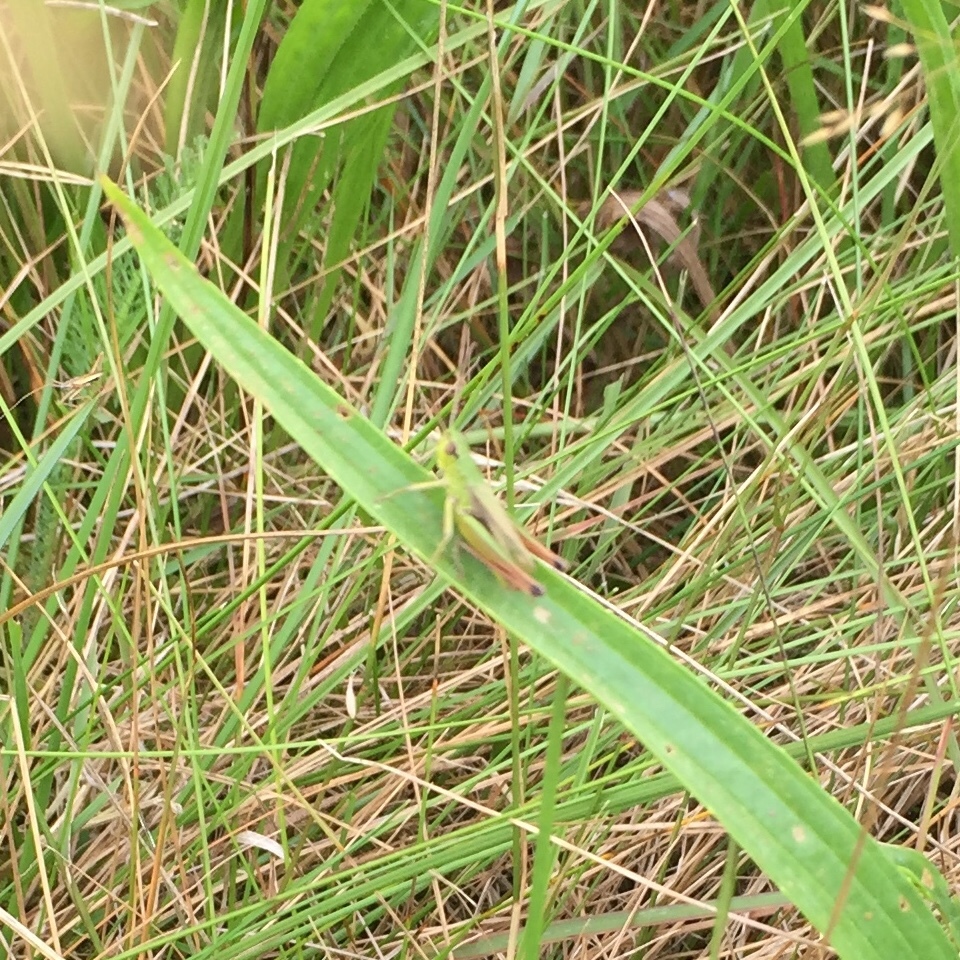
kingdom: Animalia
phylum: Arthropoda
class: Insecta
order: Orthoptera
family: Acrididae
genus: Pseudochorthippus
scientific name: Pseudochorthippus parallelus
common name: Meadow grasshopper
